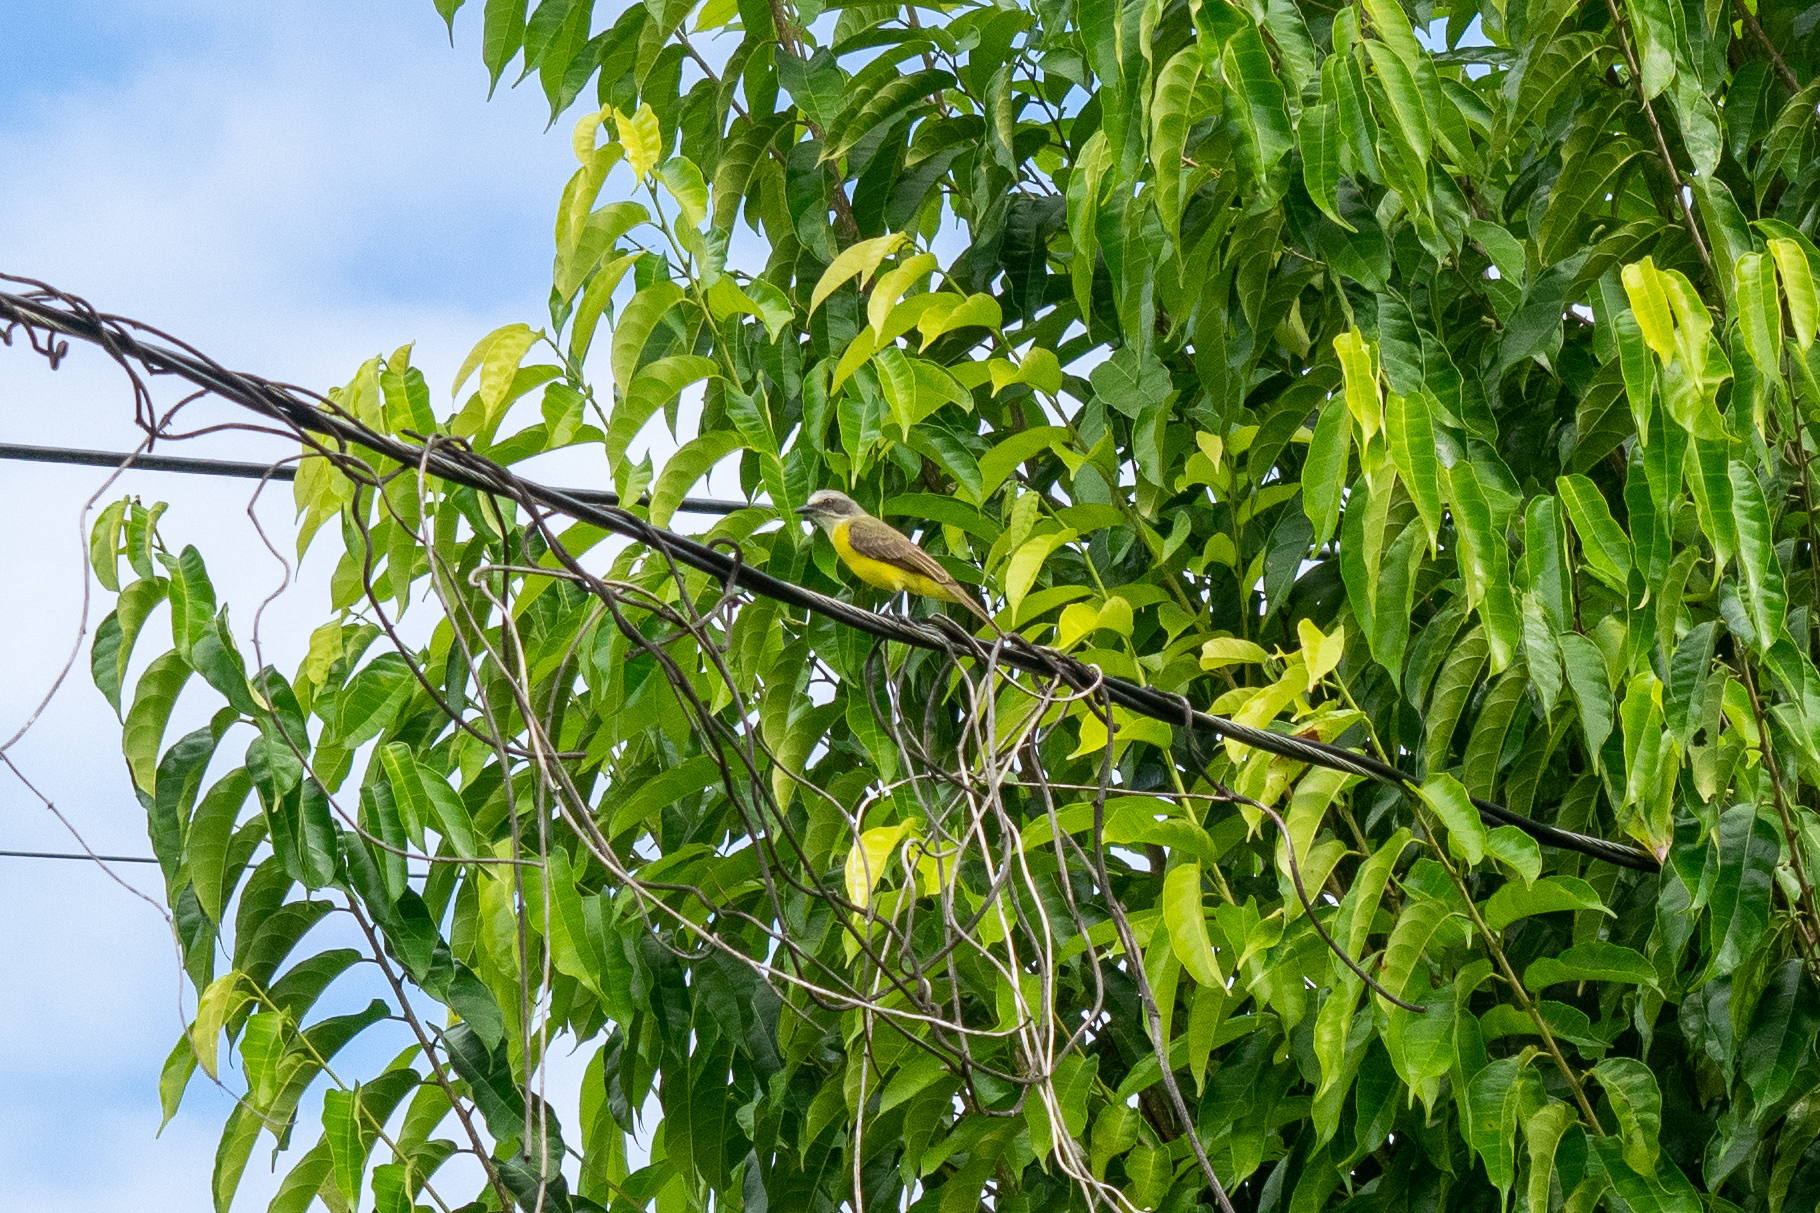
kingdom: Animalia
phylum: Chordata
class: Aves
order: Passeriformes
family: Tyrannidae
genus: Myiozetetes
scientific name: Myiozetetes granadensis
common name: Gray-capped flycatcher
